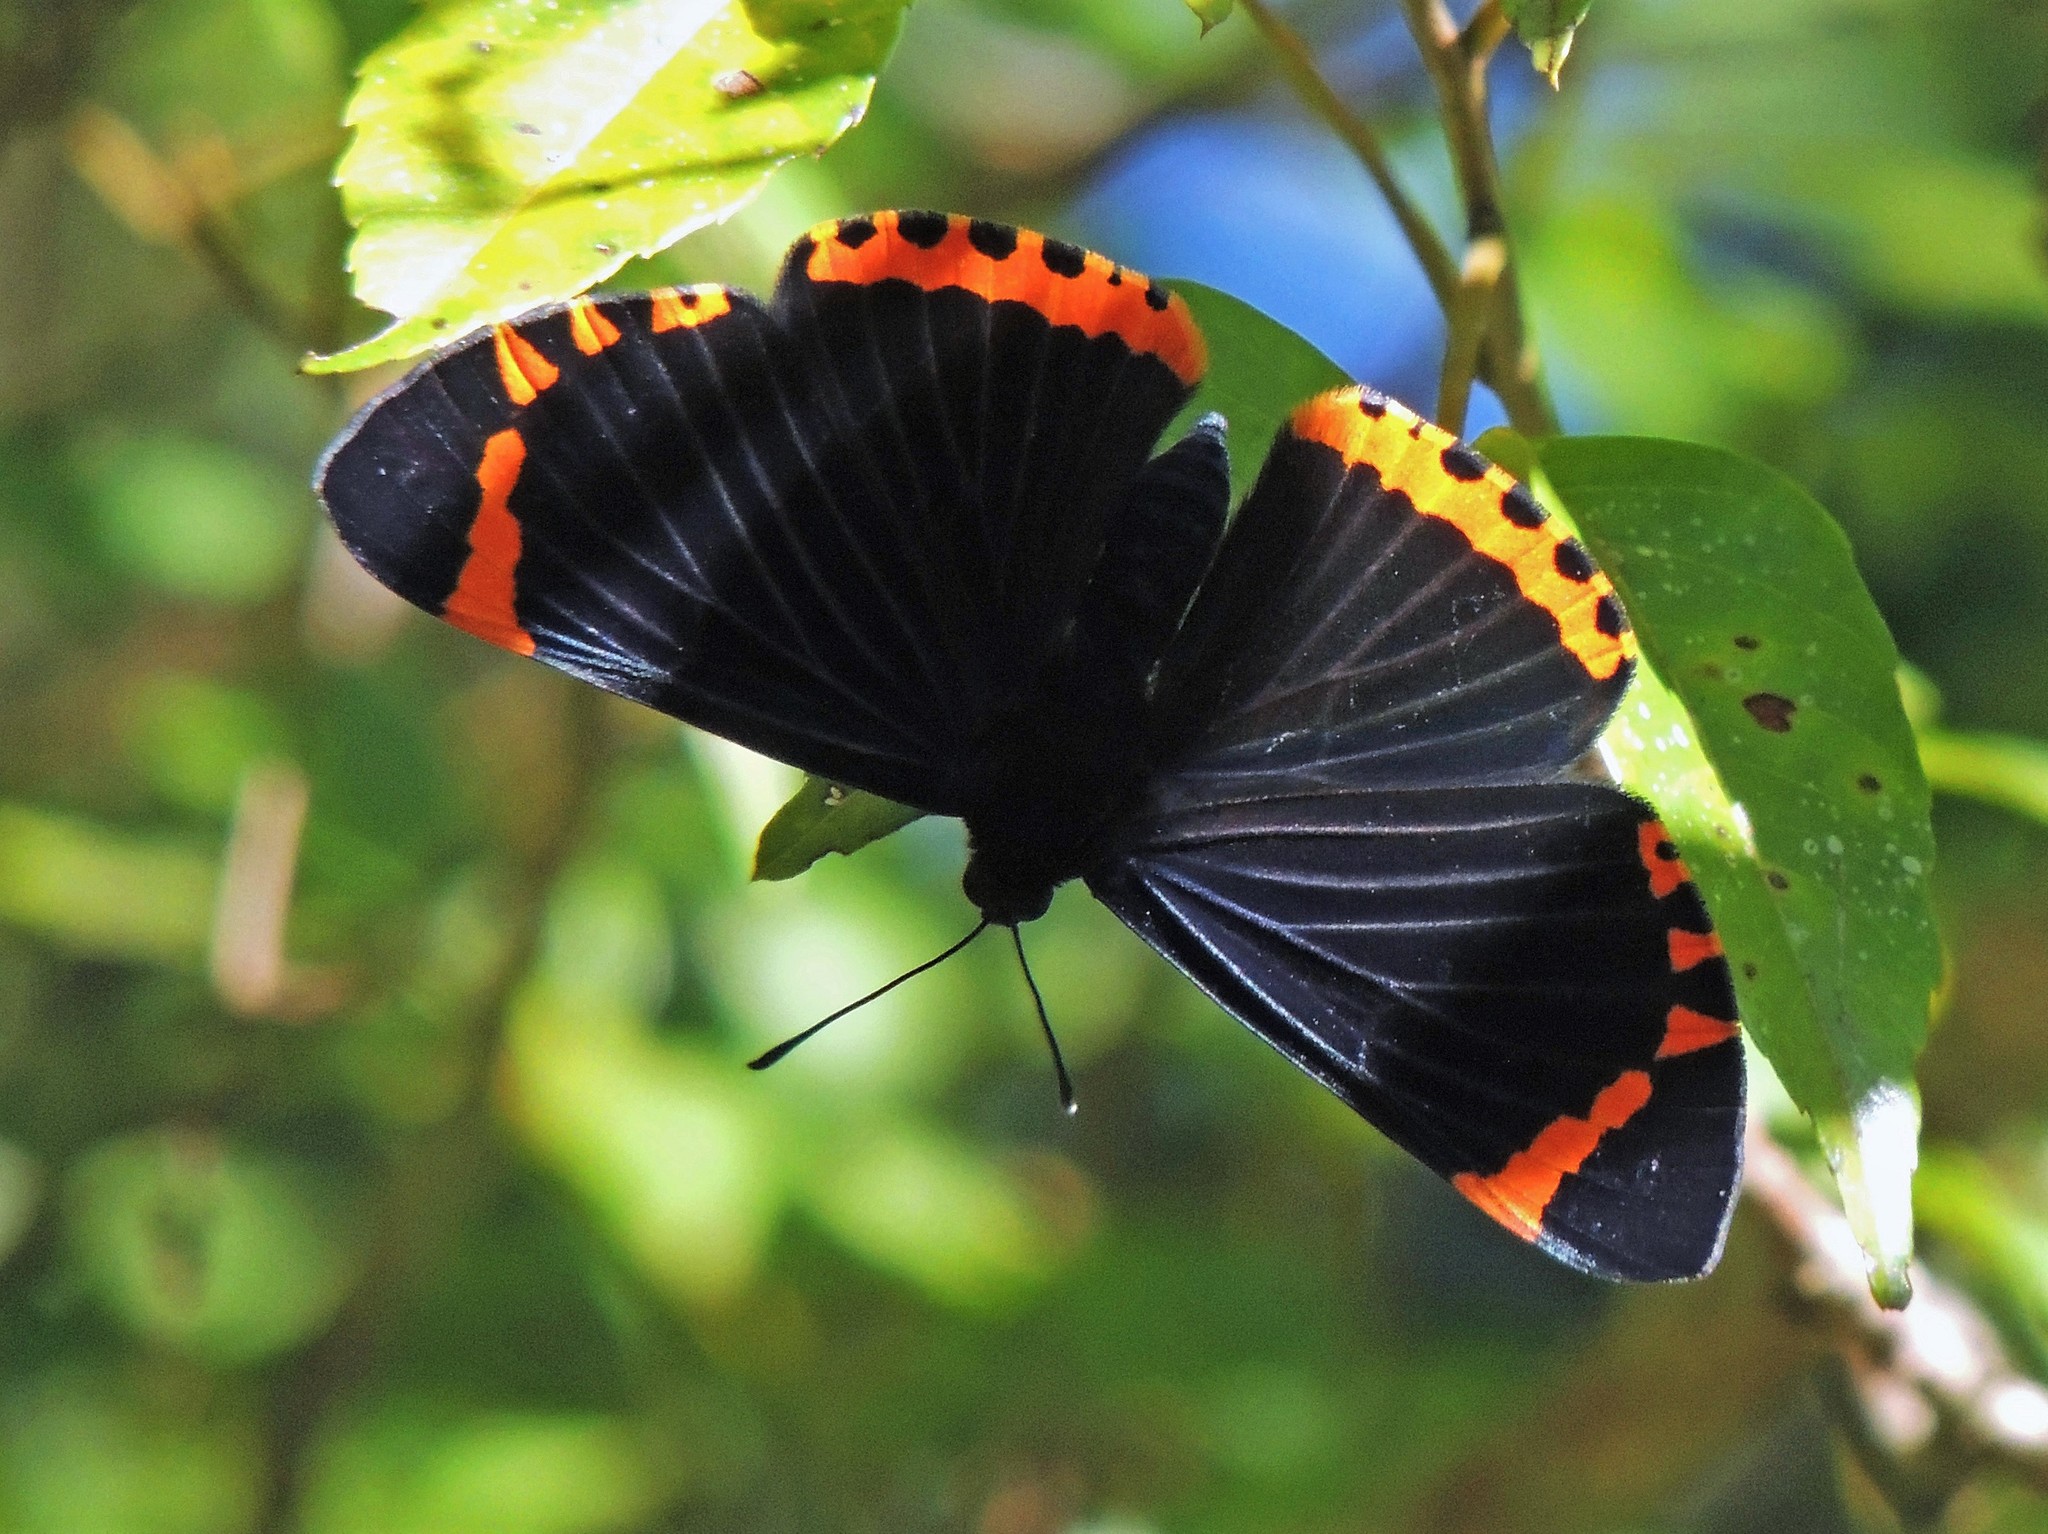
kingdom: Animalia
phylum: Arthropoda
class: Insecta
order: Lepidoptera
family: Lycaenidae
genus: Melanis
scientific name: Melanis xenia
